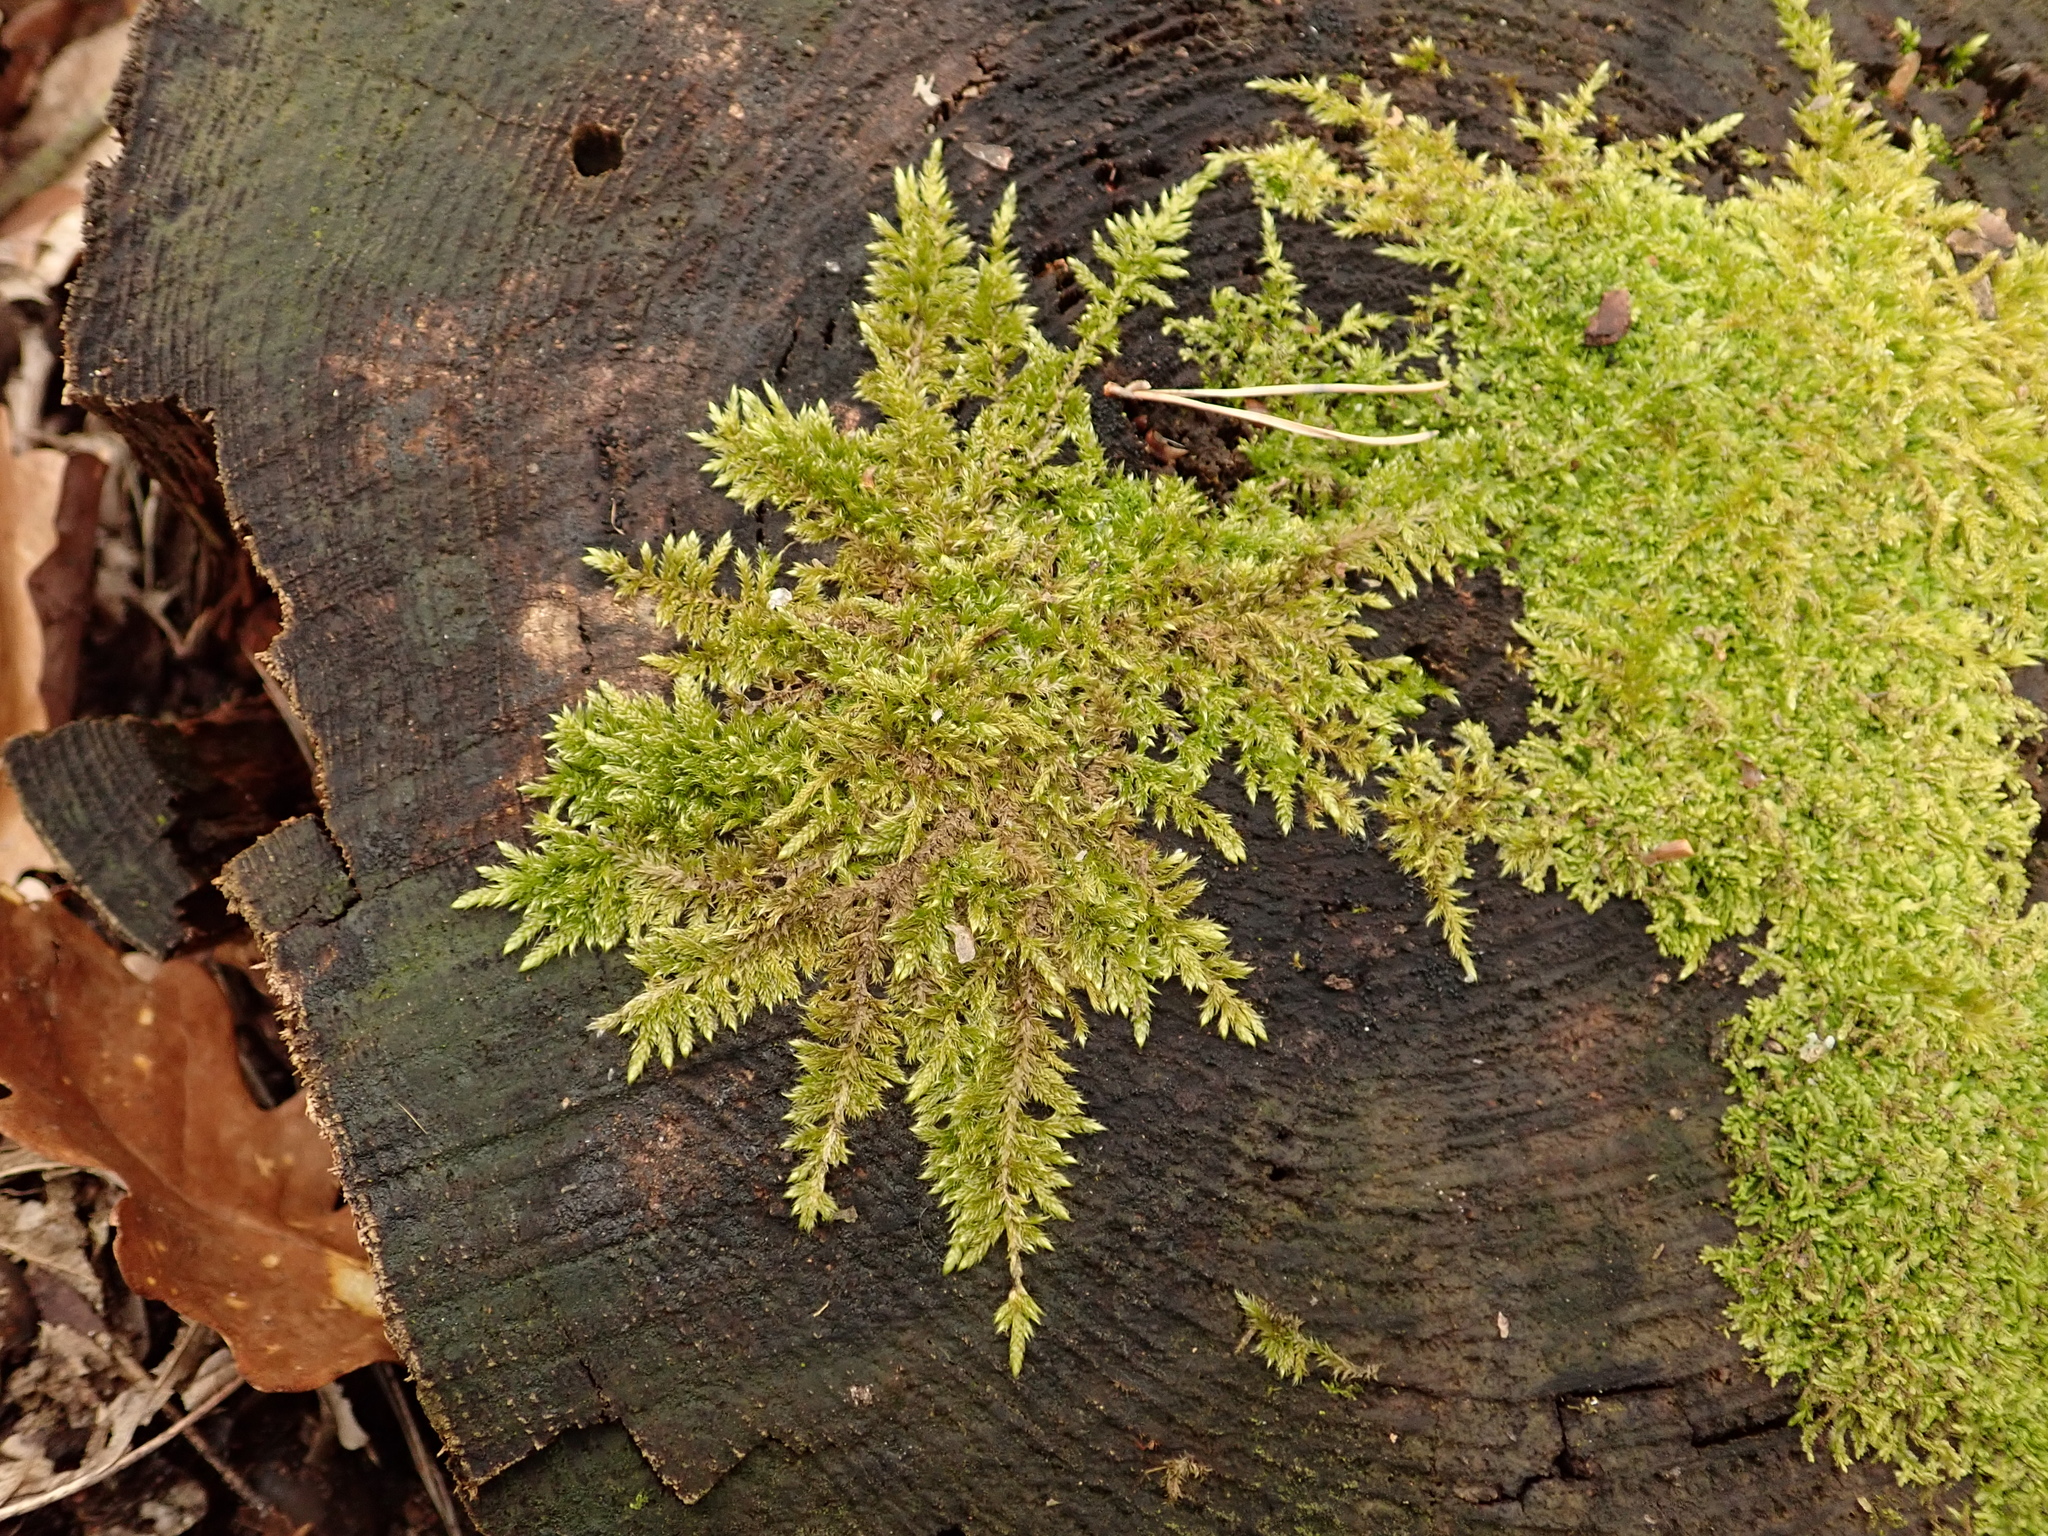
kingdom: Plantae
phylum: Bryophyta
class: Bryopsida
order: Hypnales
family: Hypnaceae
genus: Hypnum
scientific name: Hypnum cupressiforme
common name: Cypress-leaved plait-moss
